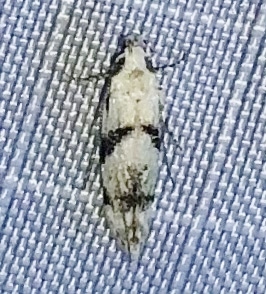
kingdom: Animalia
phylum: Arthropoda
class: Insecta
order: Lepidoptera
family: Gelechiidae
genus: Arogalea
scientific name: Arogalea cristifasciella
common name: White stripe-backed moth
